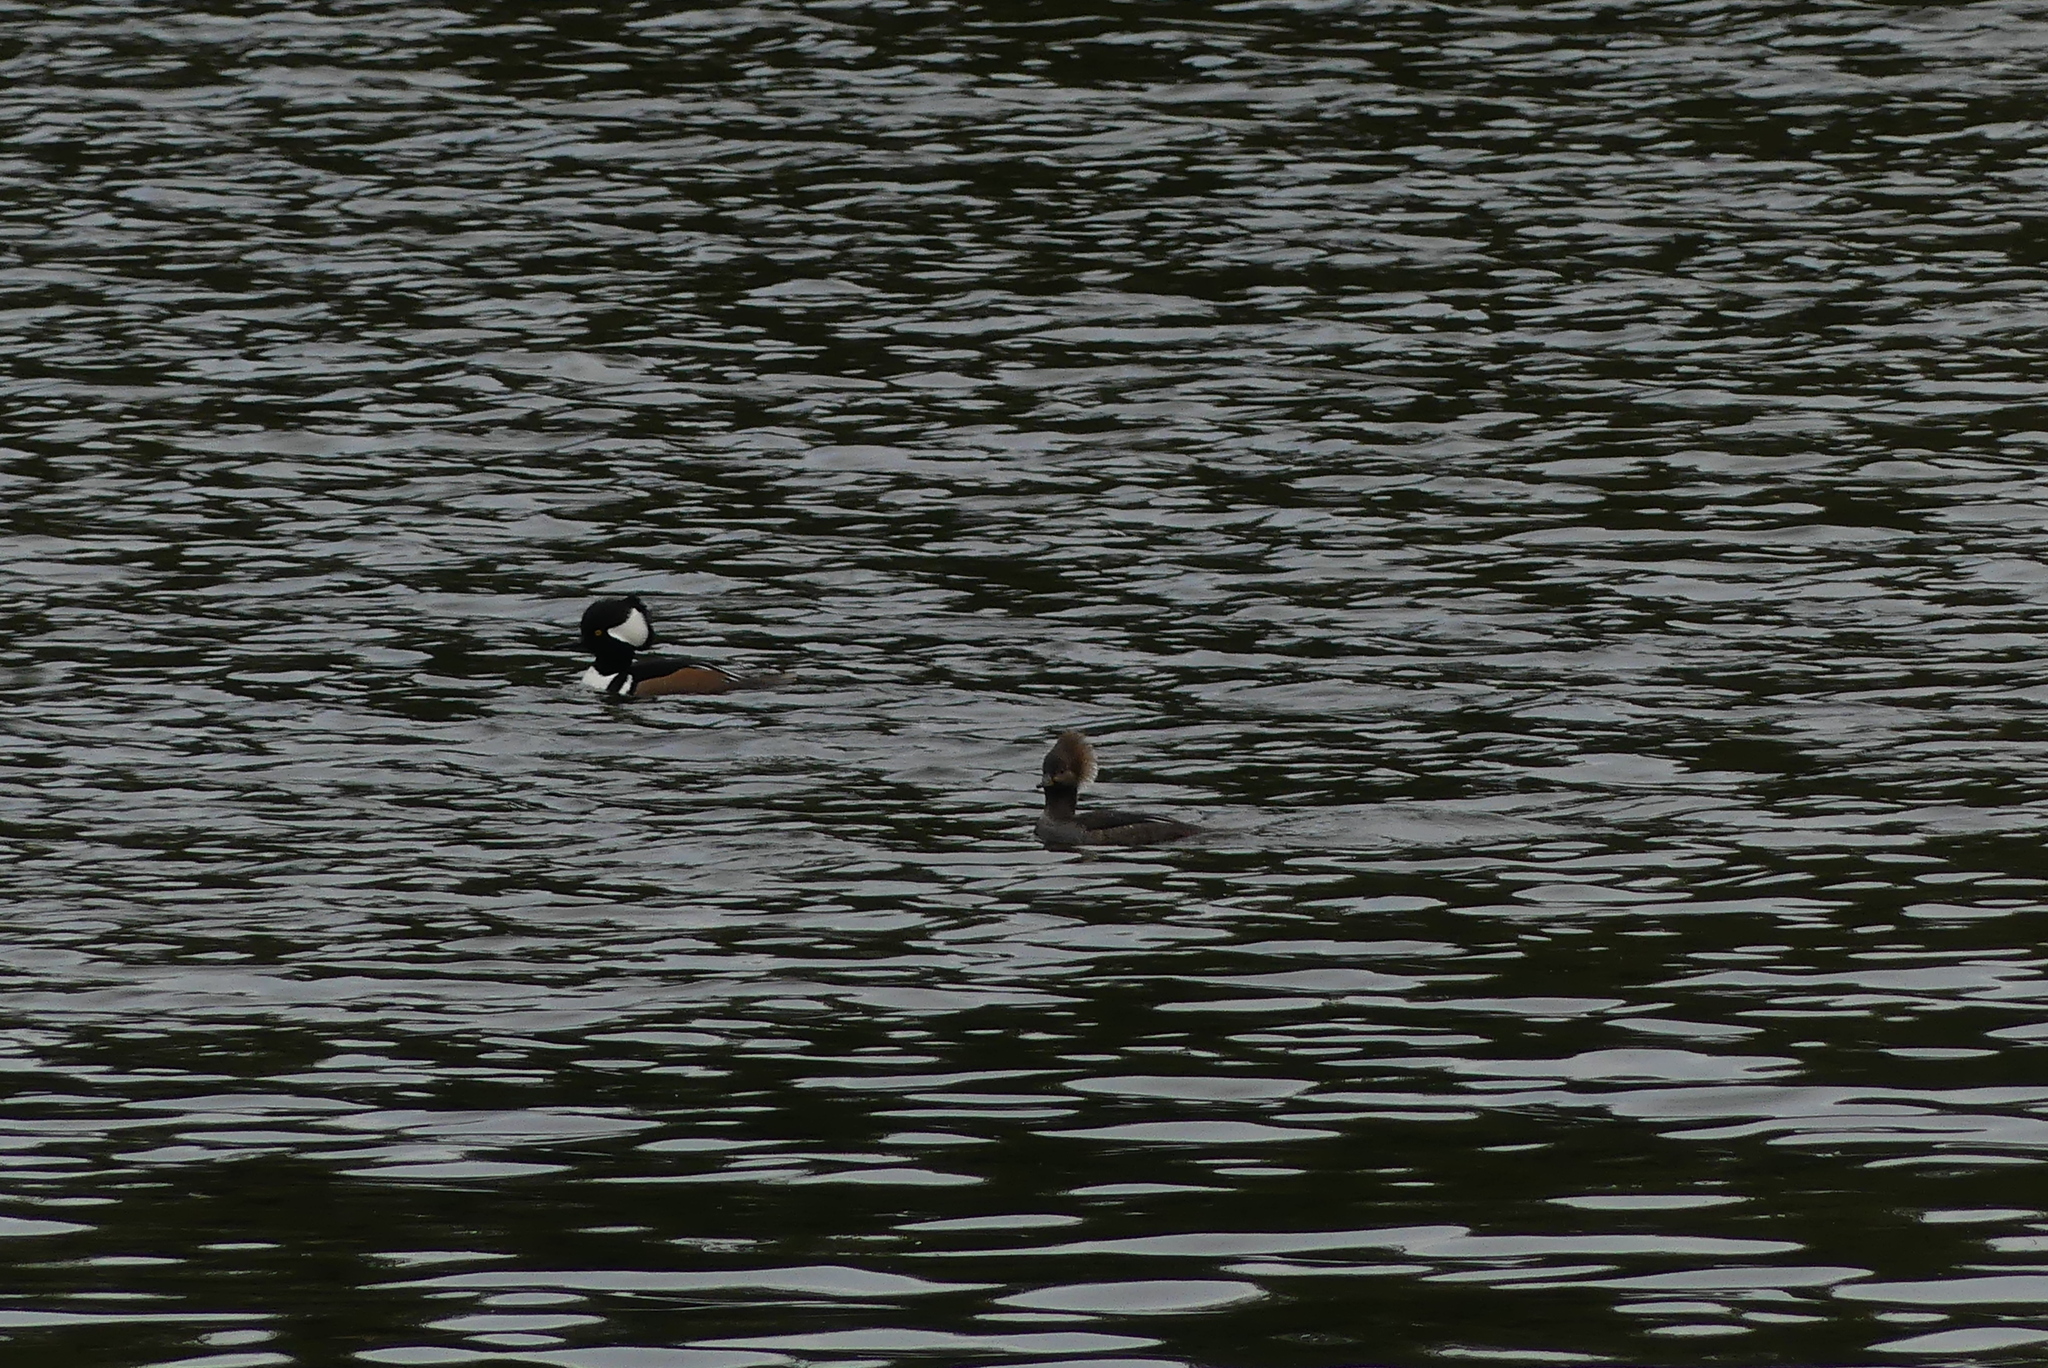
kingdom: Animalia
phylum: Chordata
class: Aves
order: Anseriformes
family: Anatidae
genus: Lophodytes
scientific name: Lophodytes cucullatus
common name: Hooded merganser
